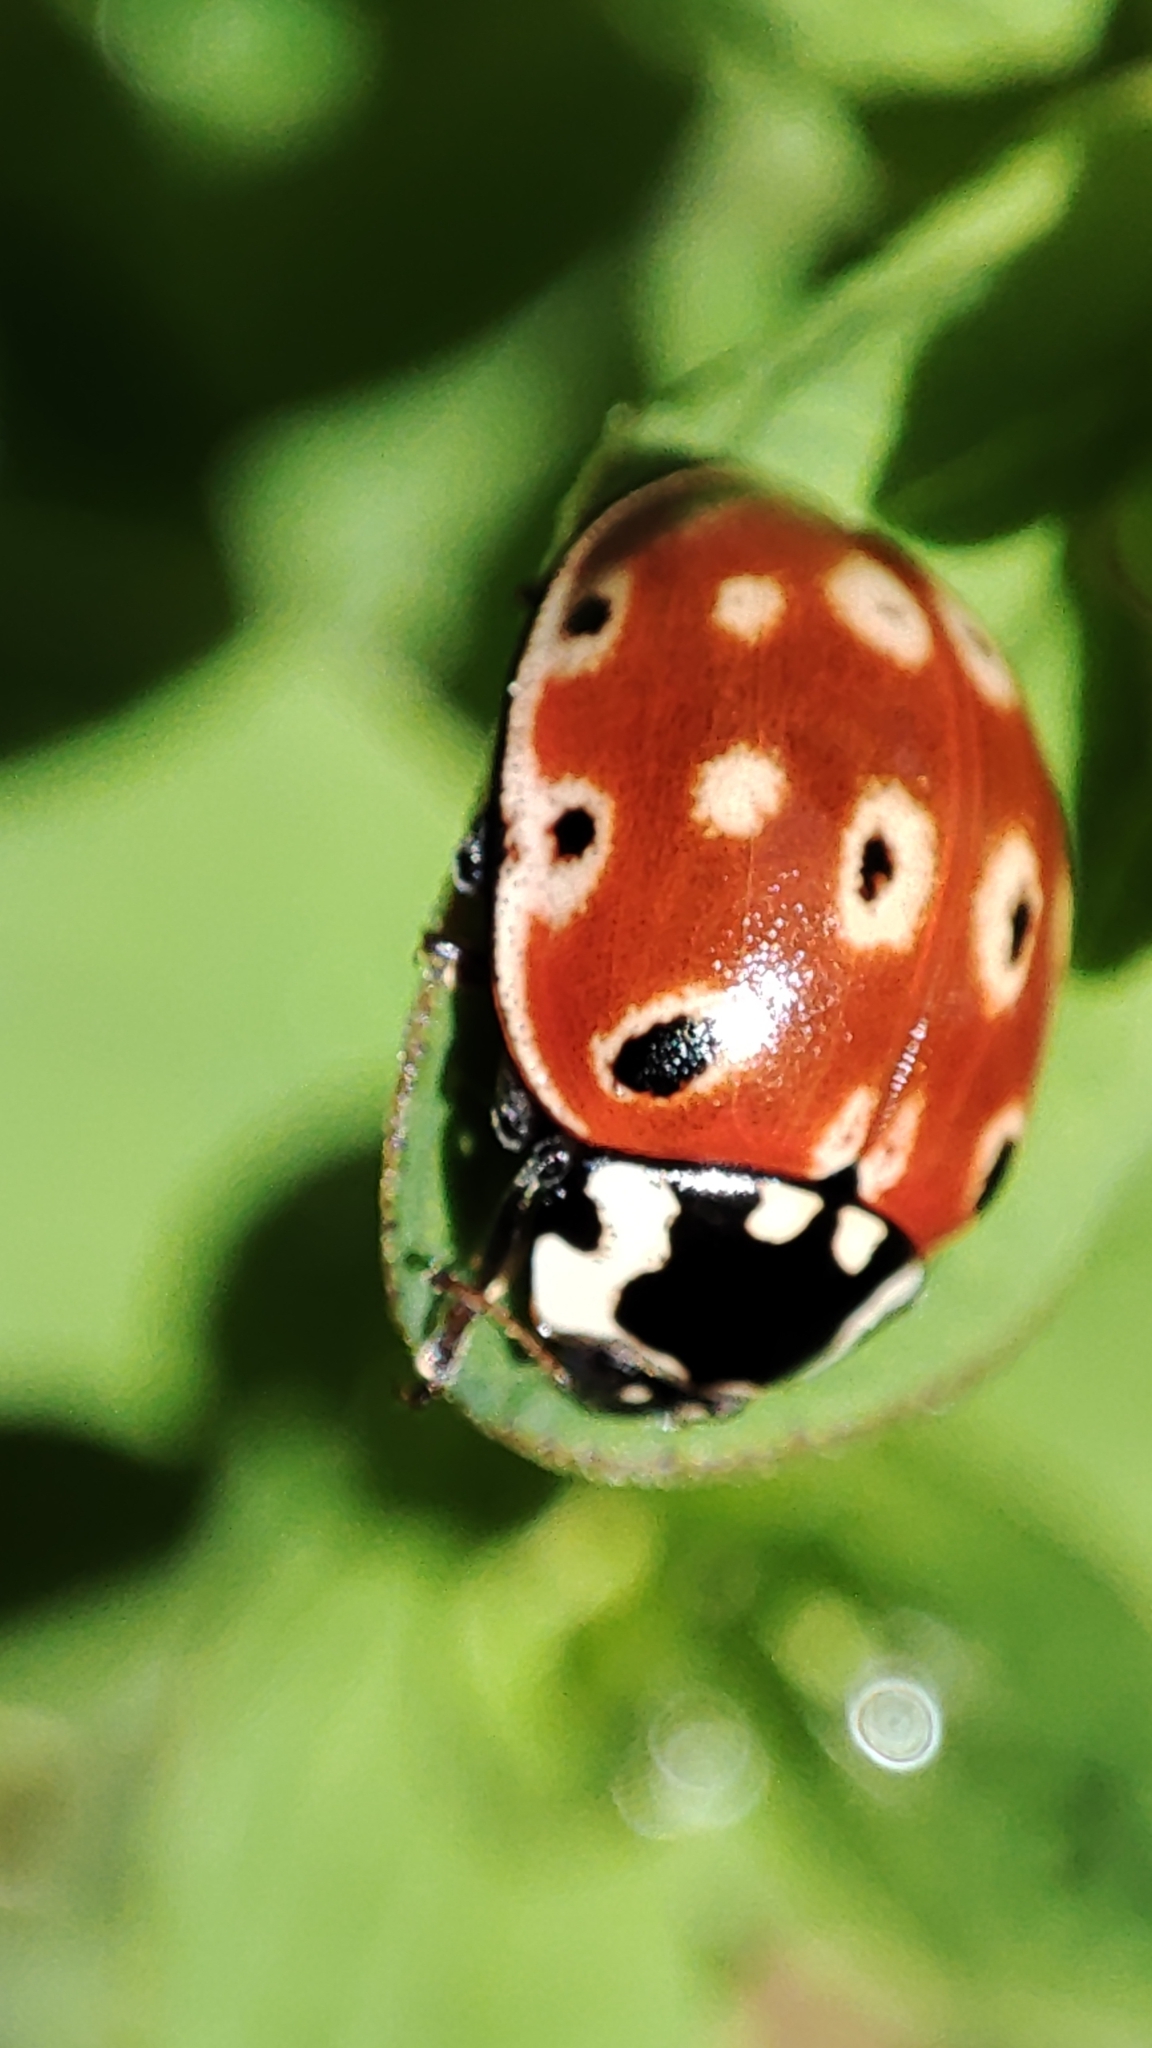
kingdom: Animalia
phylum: Arthropoda
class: Insecta
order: Coleoptera
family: Coccinellidae
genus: Anatis
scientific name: Anatis ocellata
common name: Eyed ladybird
